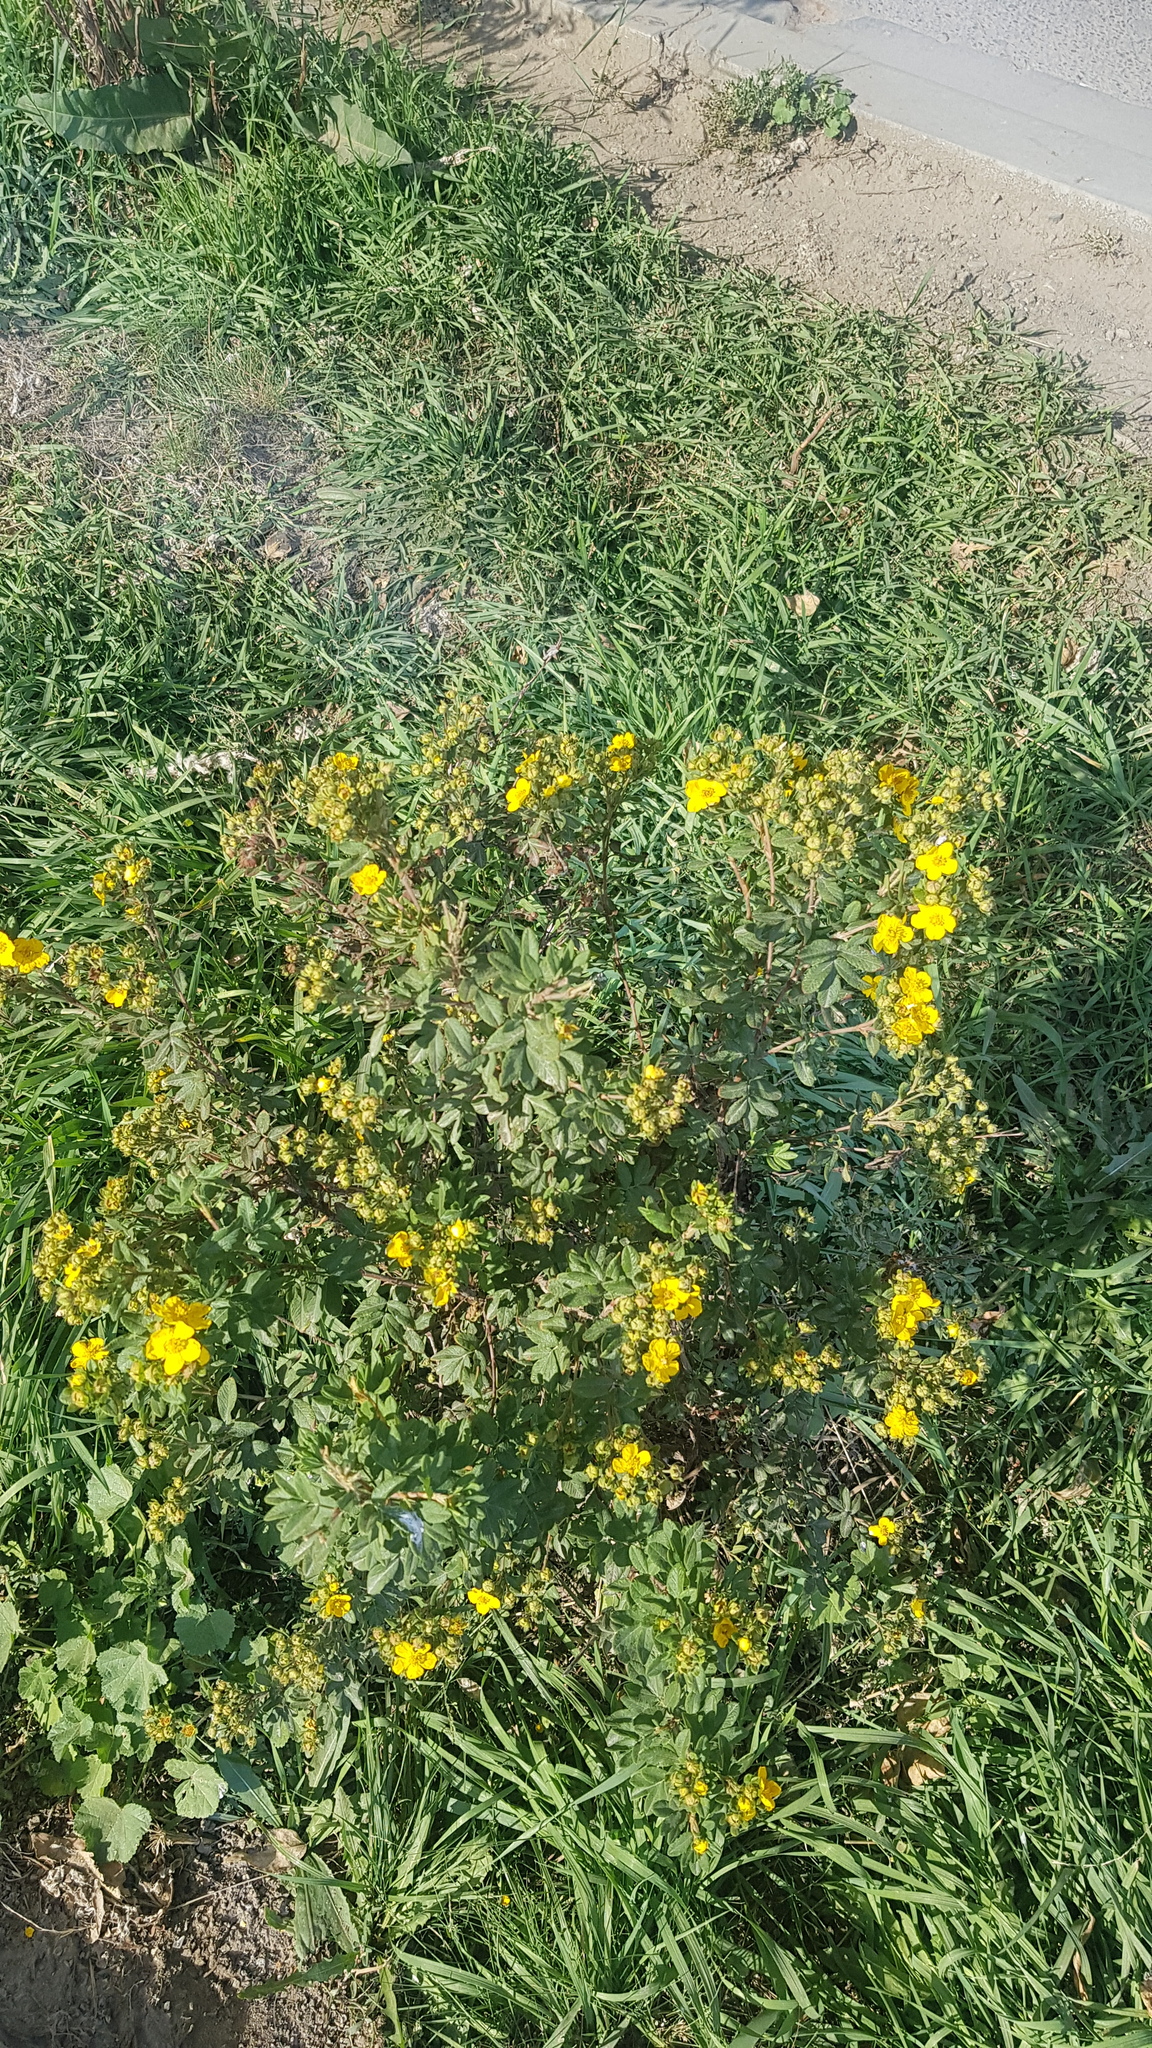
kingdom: Plantae
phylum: Tracheophyta
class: Magnoliopsida
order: Rosales
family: Rosaceae
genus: Dasiphora
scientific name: Dasiphora fruticosa
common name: Shrubby cinquefoil
